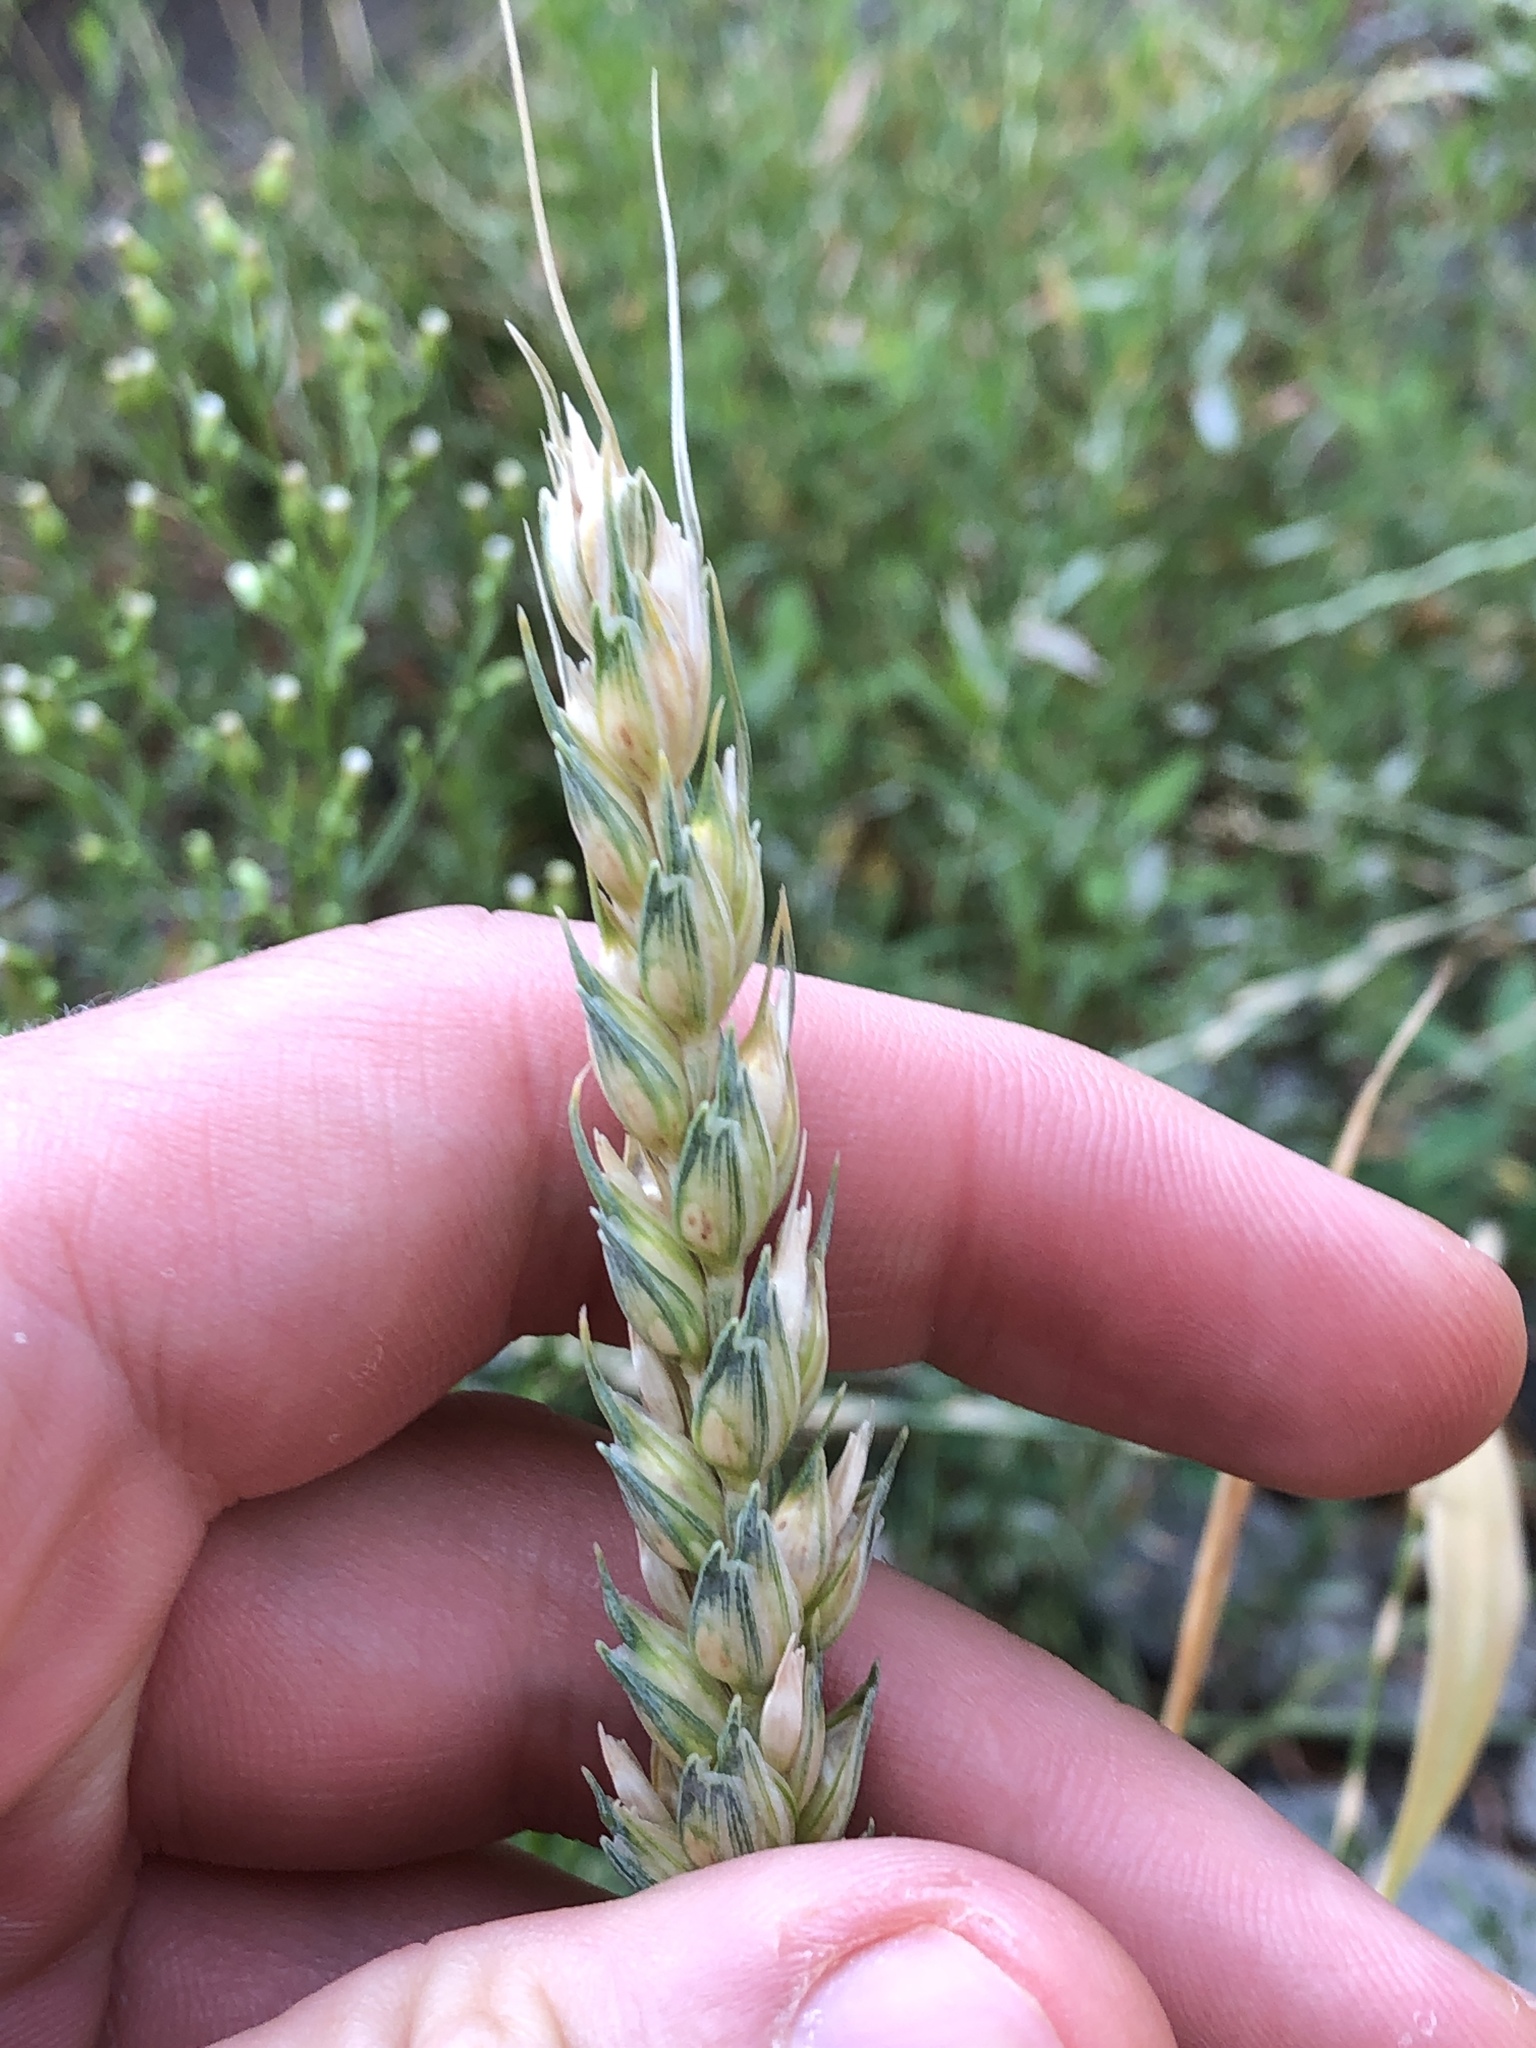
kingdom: Plantae
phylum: Tracheophyta
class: Liliopsida
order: Poales
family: Poaceae
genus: Triticum
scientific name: Triticum aestivum
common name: Common wheat
